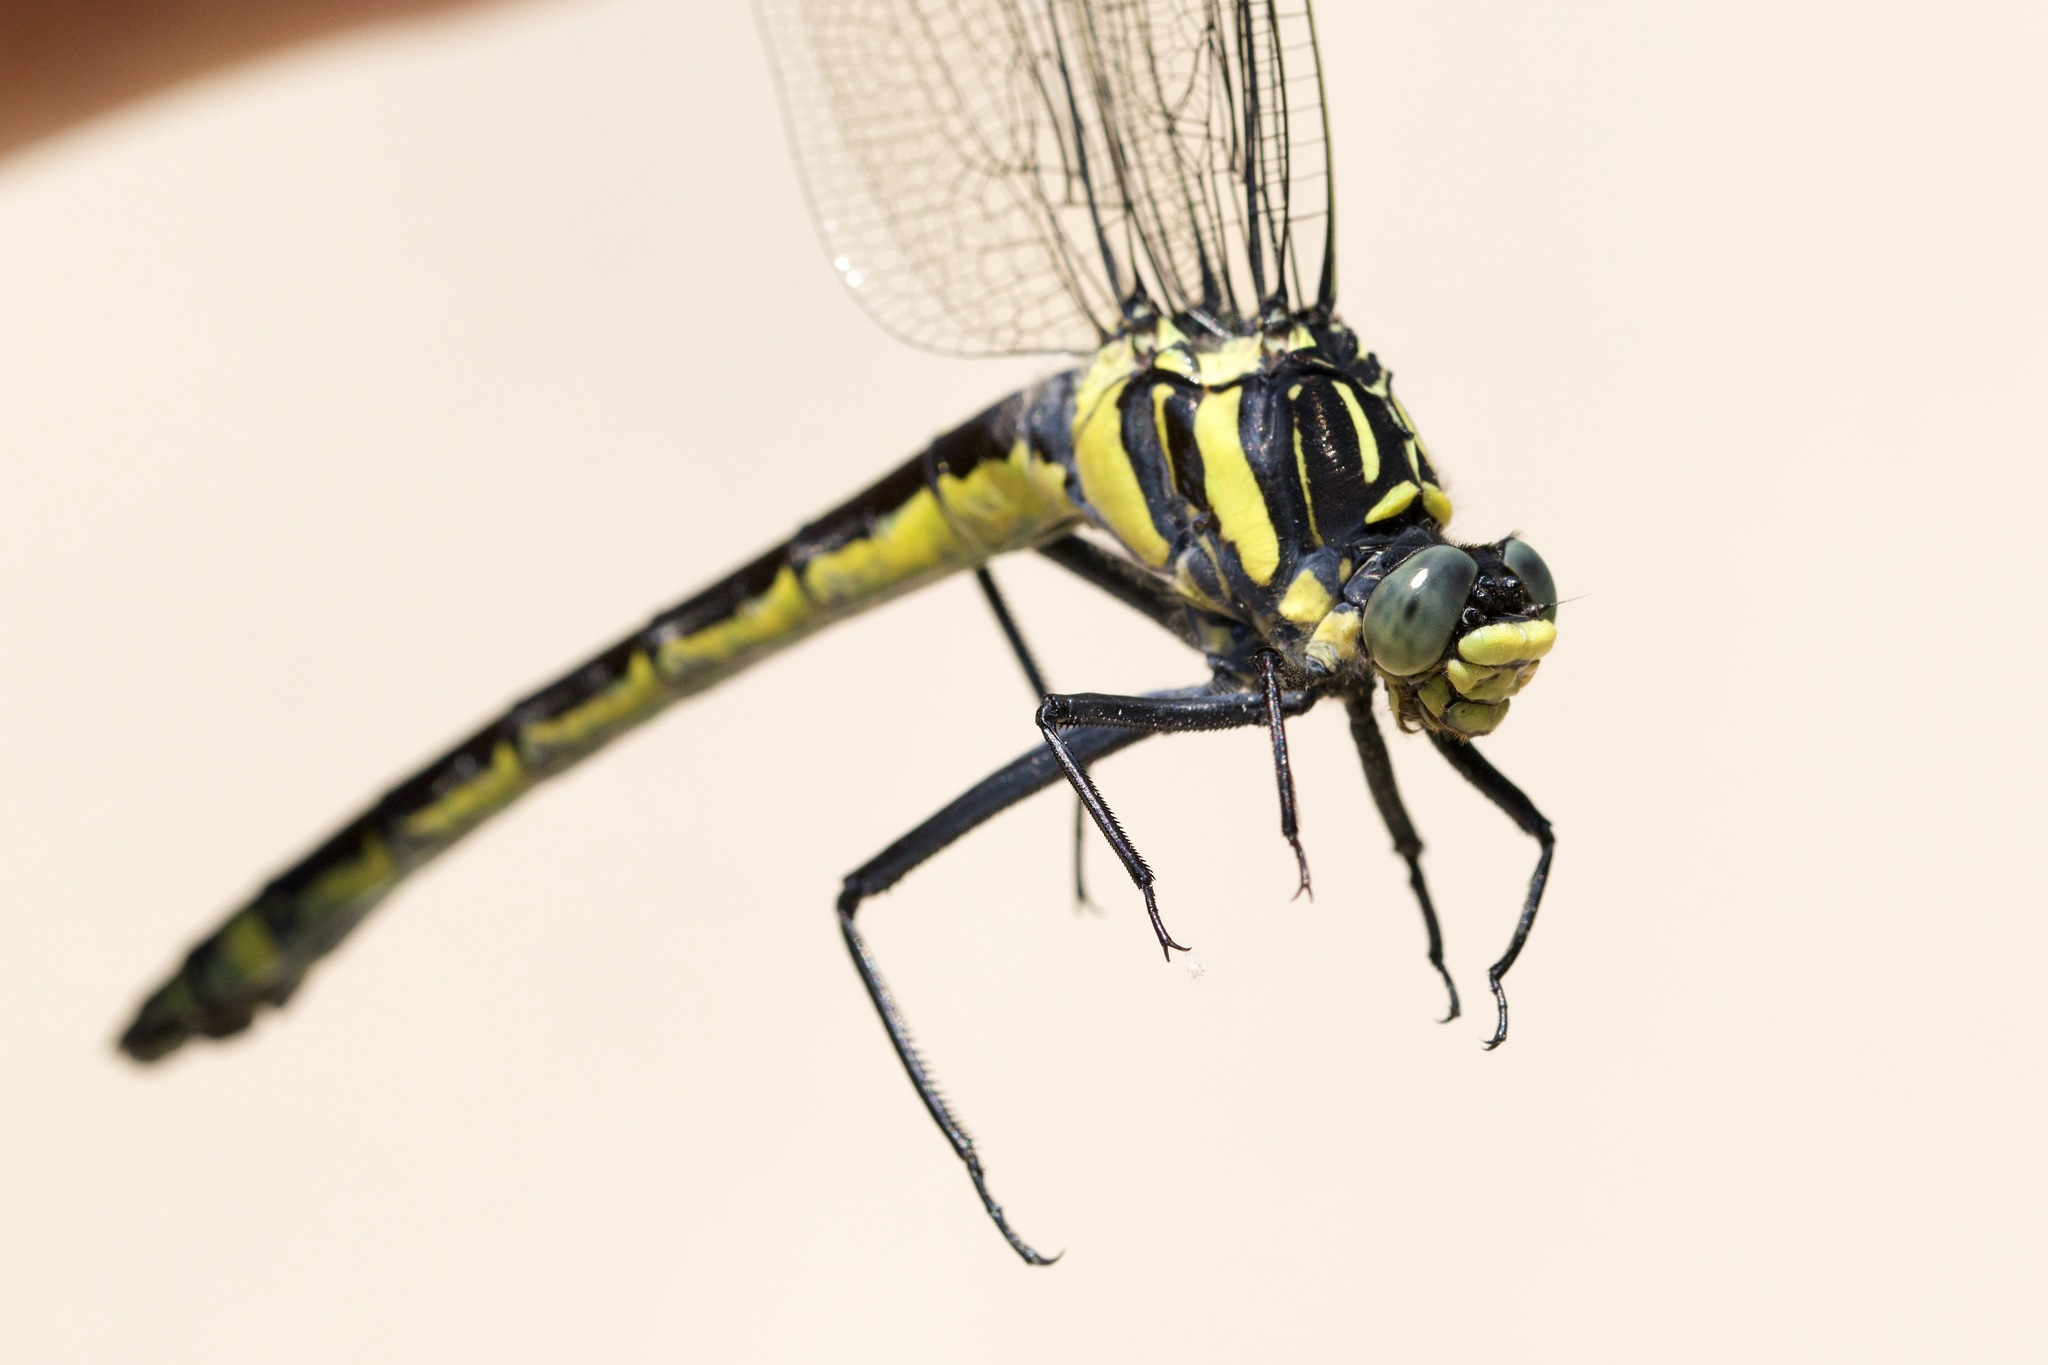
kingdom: Animalia
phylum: Arthropoda
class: Insecta
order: Odonata
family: Gomphidae
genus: Hagenius
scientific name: Hagenius brevistylus
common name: Dragonhunter
